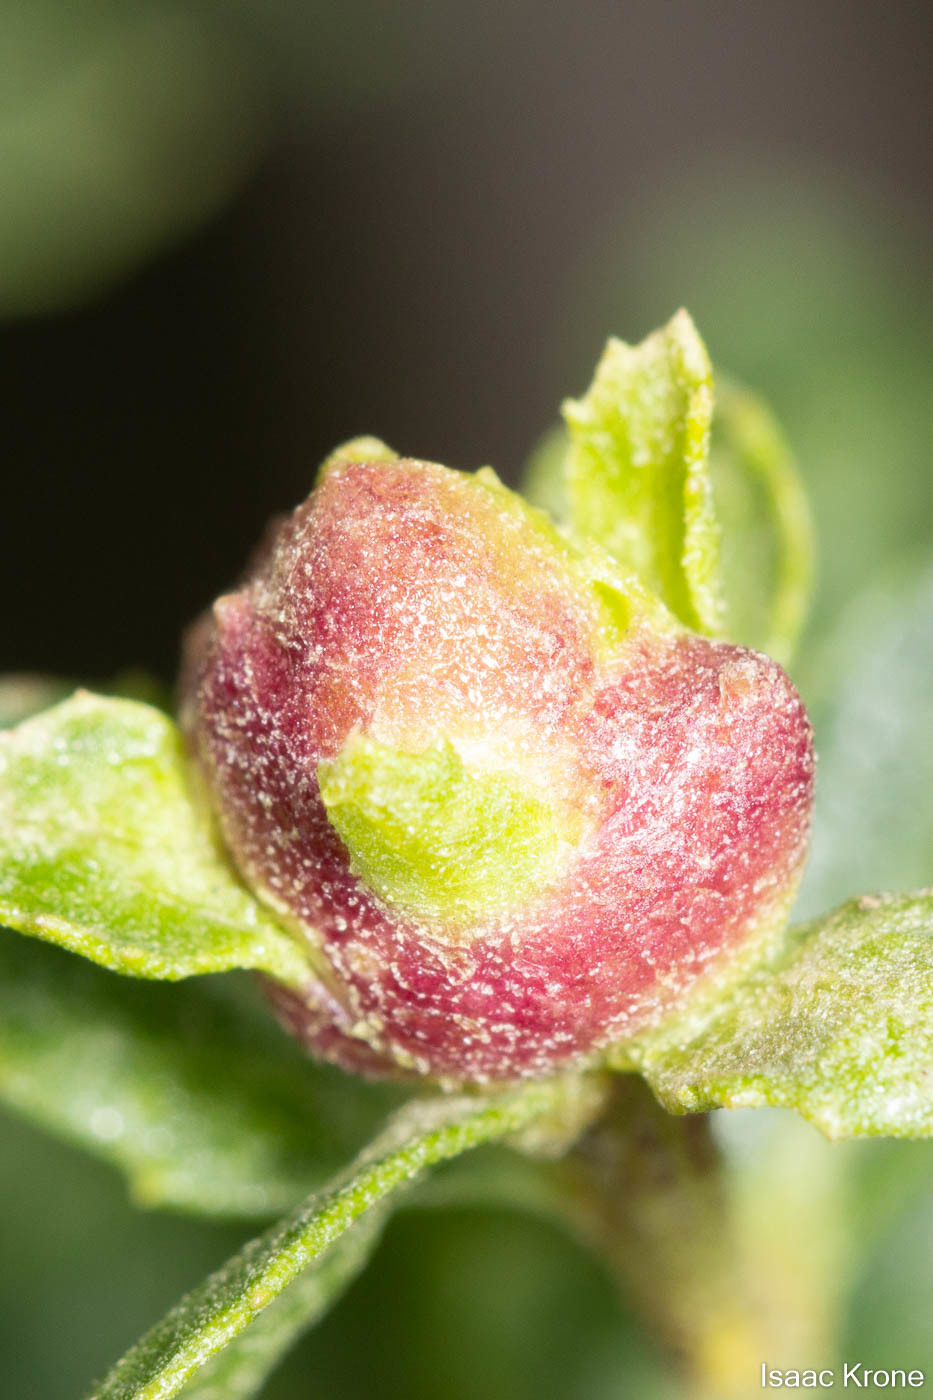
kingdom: Animalia
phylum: Arthropoda
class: Insecta
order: Diptera
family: Cecidomyiidae
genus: Rhopalomyia
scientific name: Rhopalomyia californica
